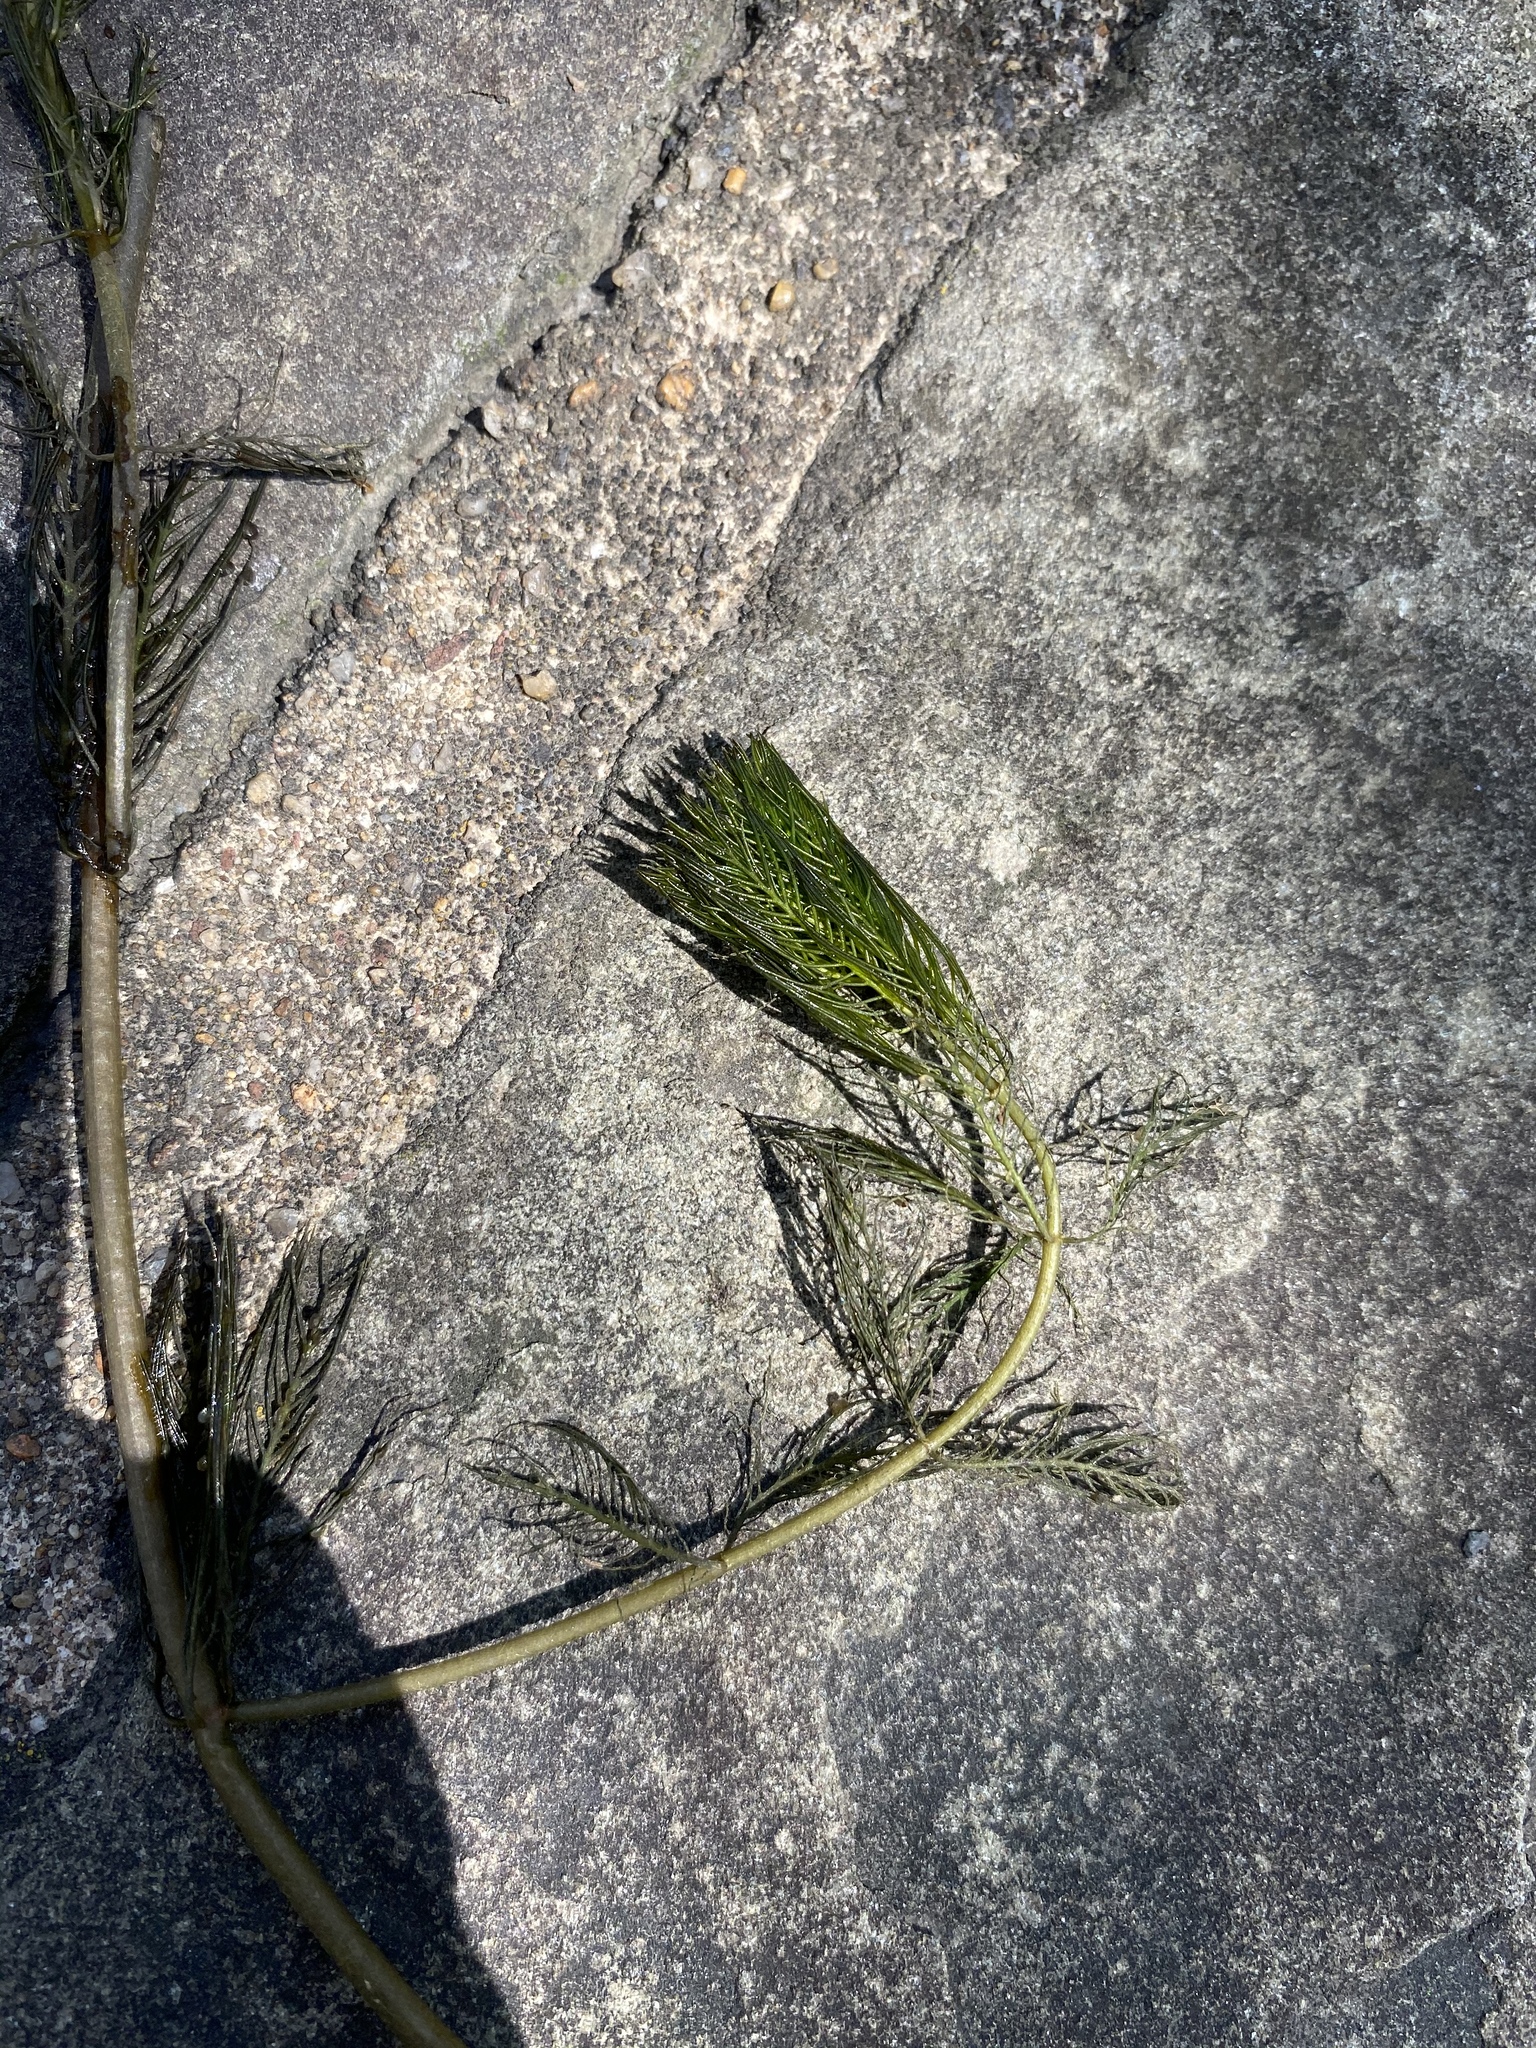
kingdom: Plantae
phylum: Tracheophyta
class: Magnoliopsida
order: Saxifragales
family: Haloragaceae
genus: Myriophyllum
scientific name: Myriophyllum spicatum
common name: Spiked water-milfoil
